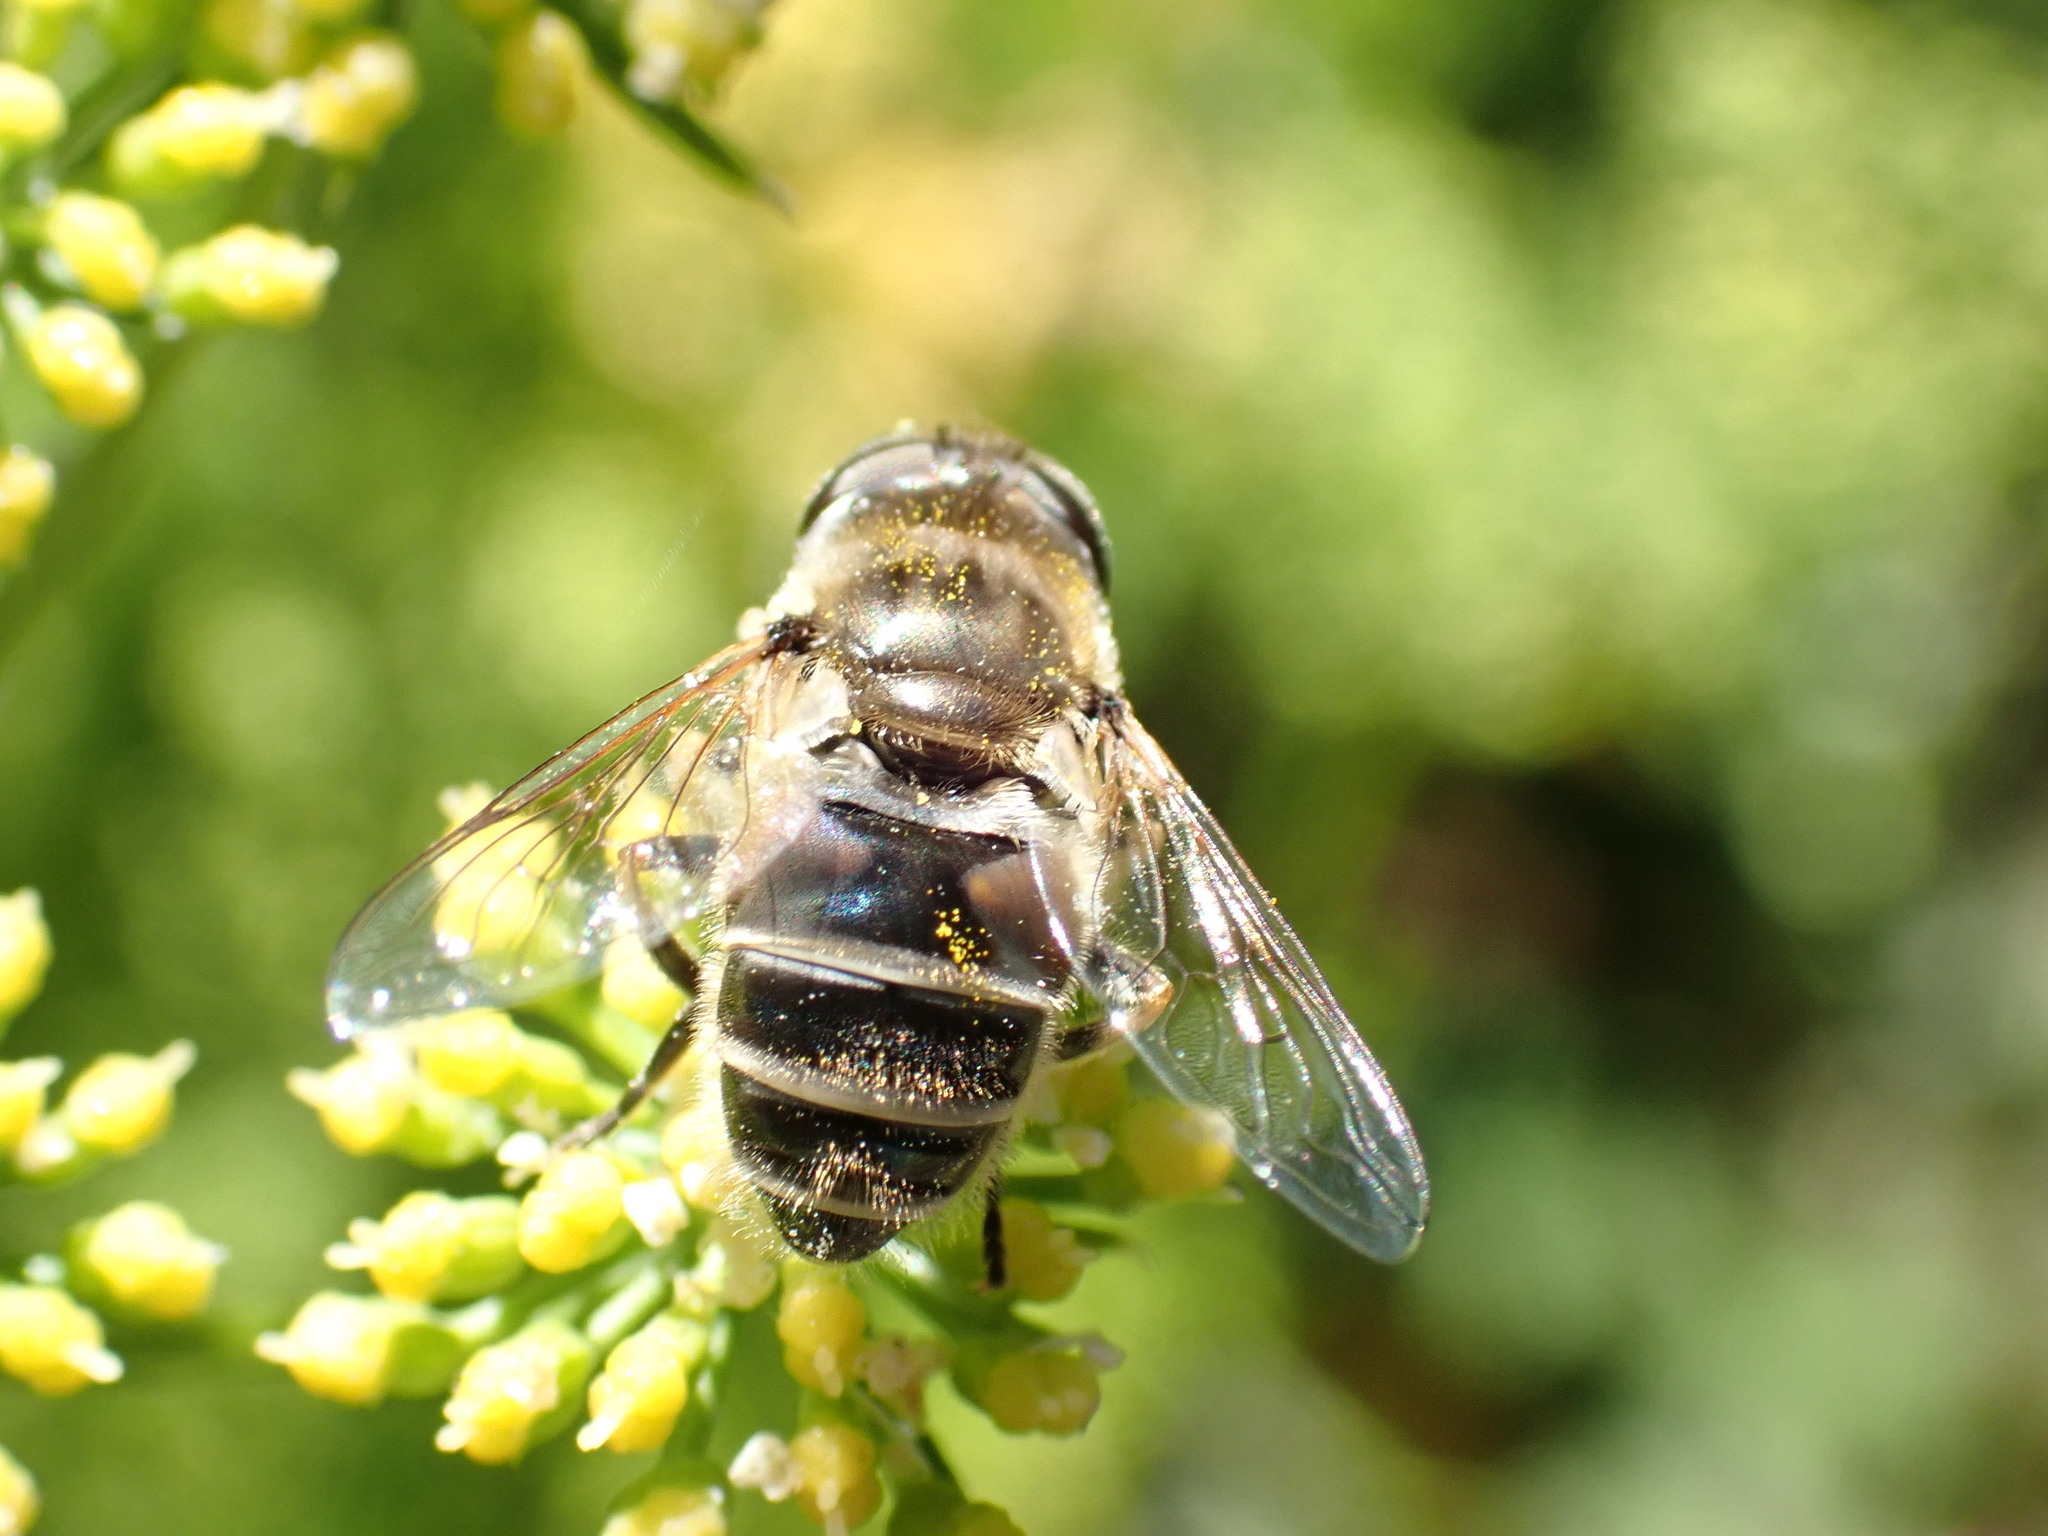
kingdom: Animalia
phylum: Arthropoda
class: Insecta
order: Diptera
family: Syrphidae
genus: Eristalis
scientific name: Eristalis arbustorum
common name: Hover fly
